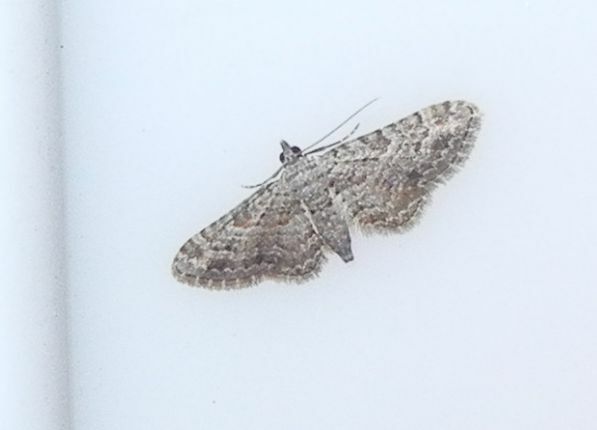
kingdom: Animalia
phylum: Arthropoda
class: Insecta
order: Lepidoptera
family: Geometridae
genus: Gymnoscelis
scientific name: Gymnoscelis rufifasciata
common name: Double-striped pug
